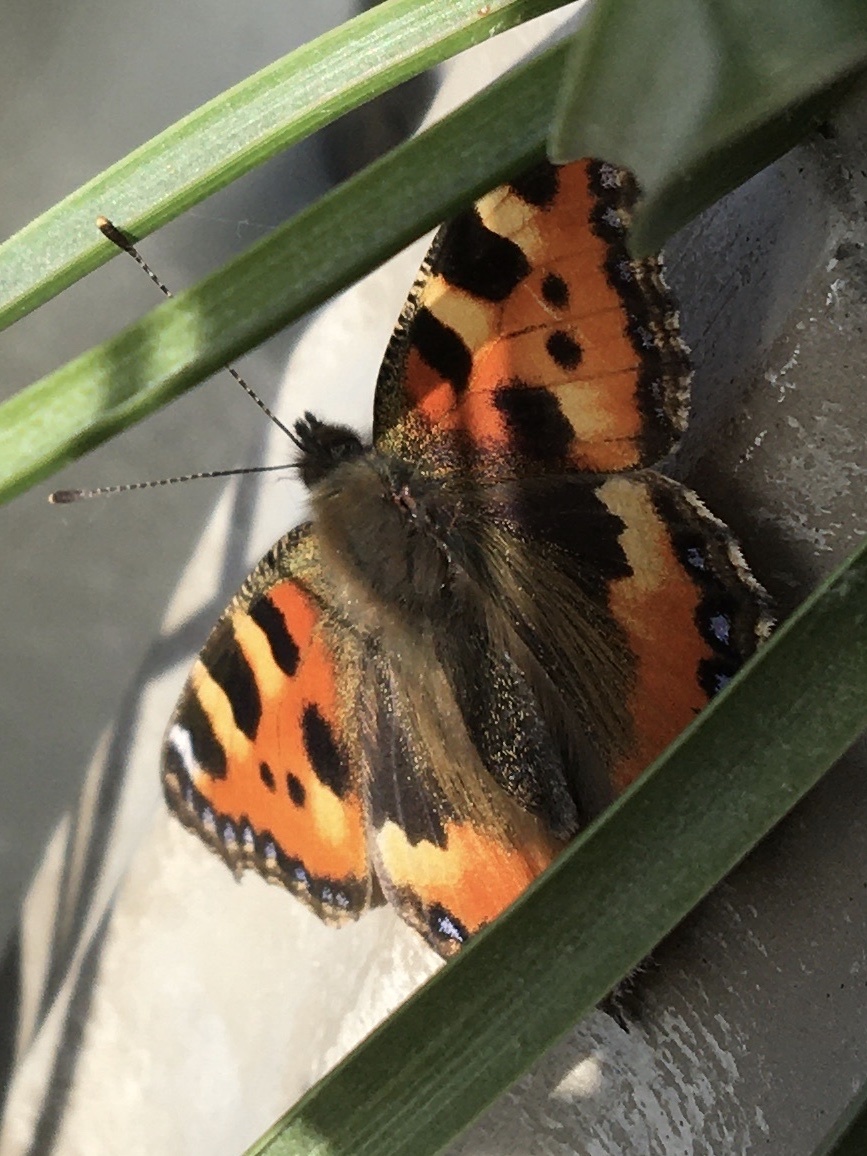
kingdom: Animalia
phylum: Arthropoda
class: Insecta
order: Lepidoptera
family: Nymphalidae
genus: Aglais
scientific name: Aglais urticae
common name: Small tortoiseshell
